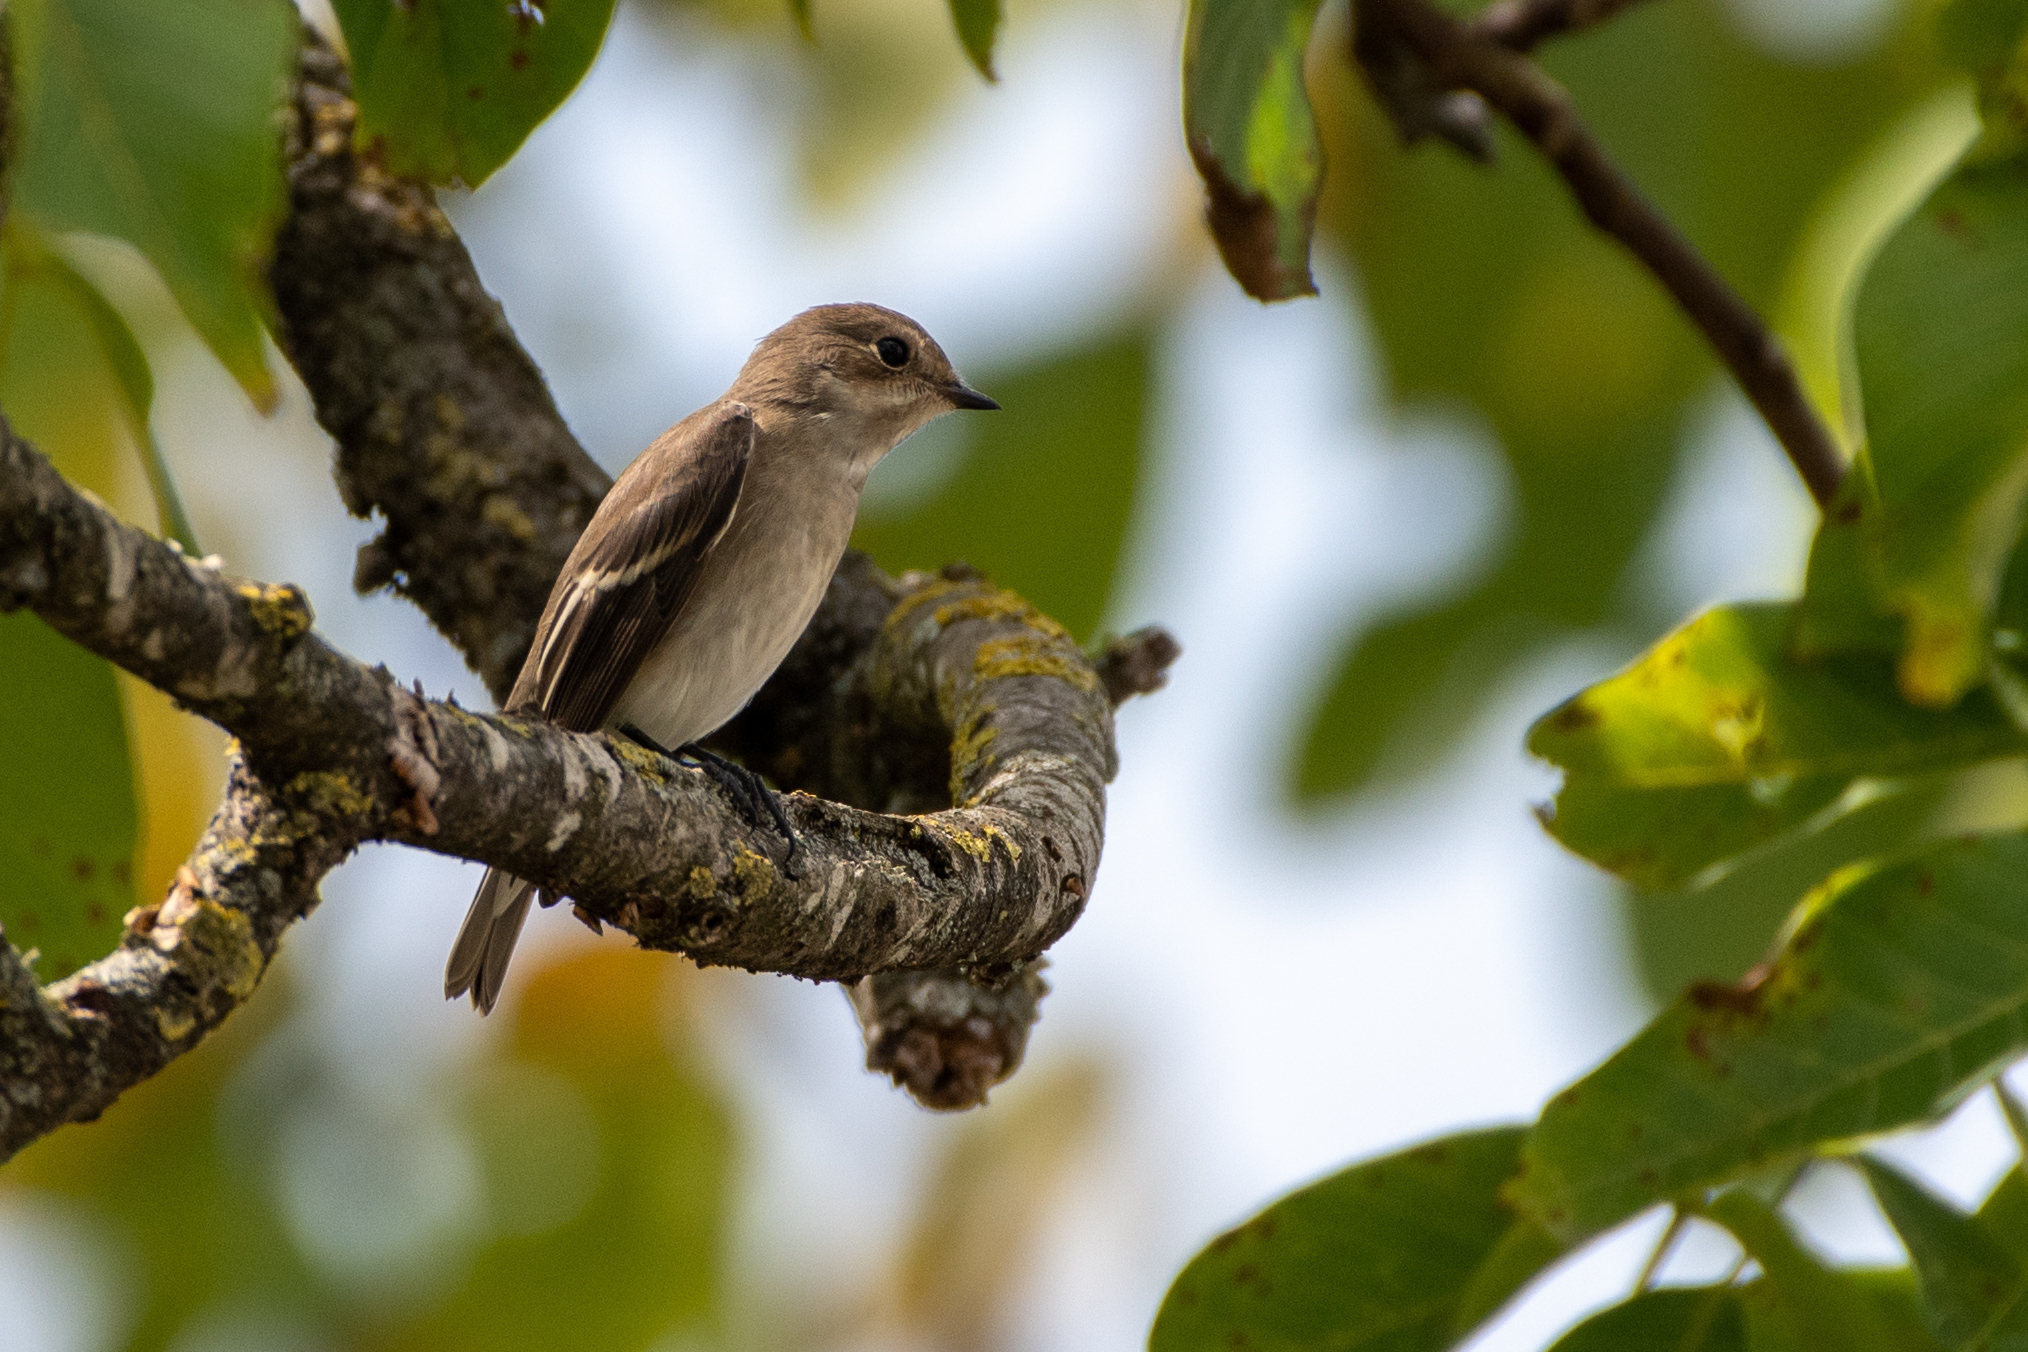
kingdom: Animalia
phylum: Chordata
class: Aves
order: Passeriformes
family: Muscicapidae
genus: Ficedula
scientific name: Ficedula hypoleuca
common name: European pied flycatcher
